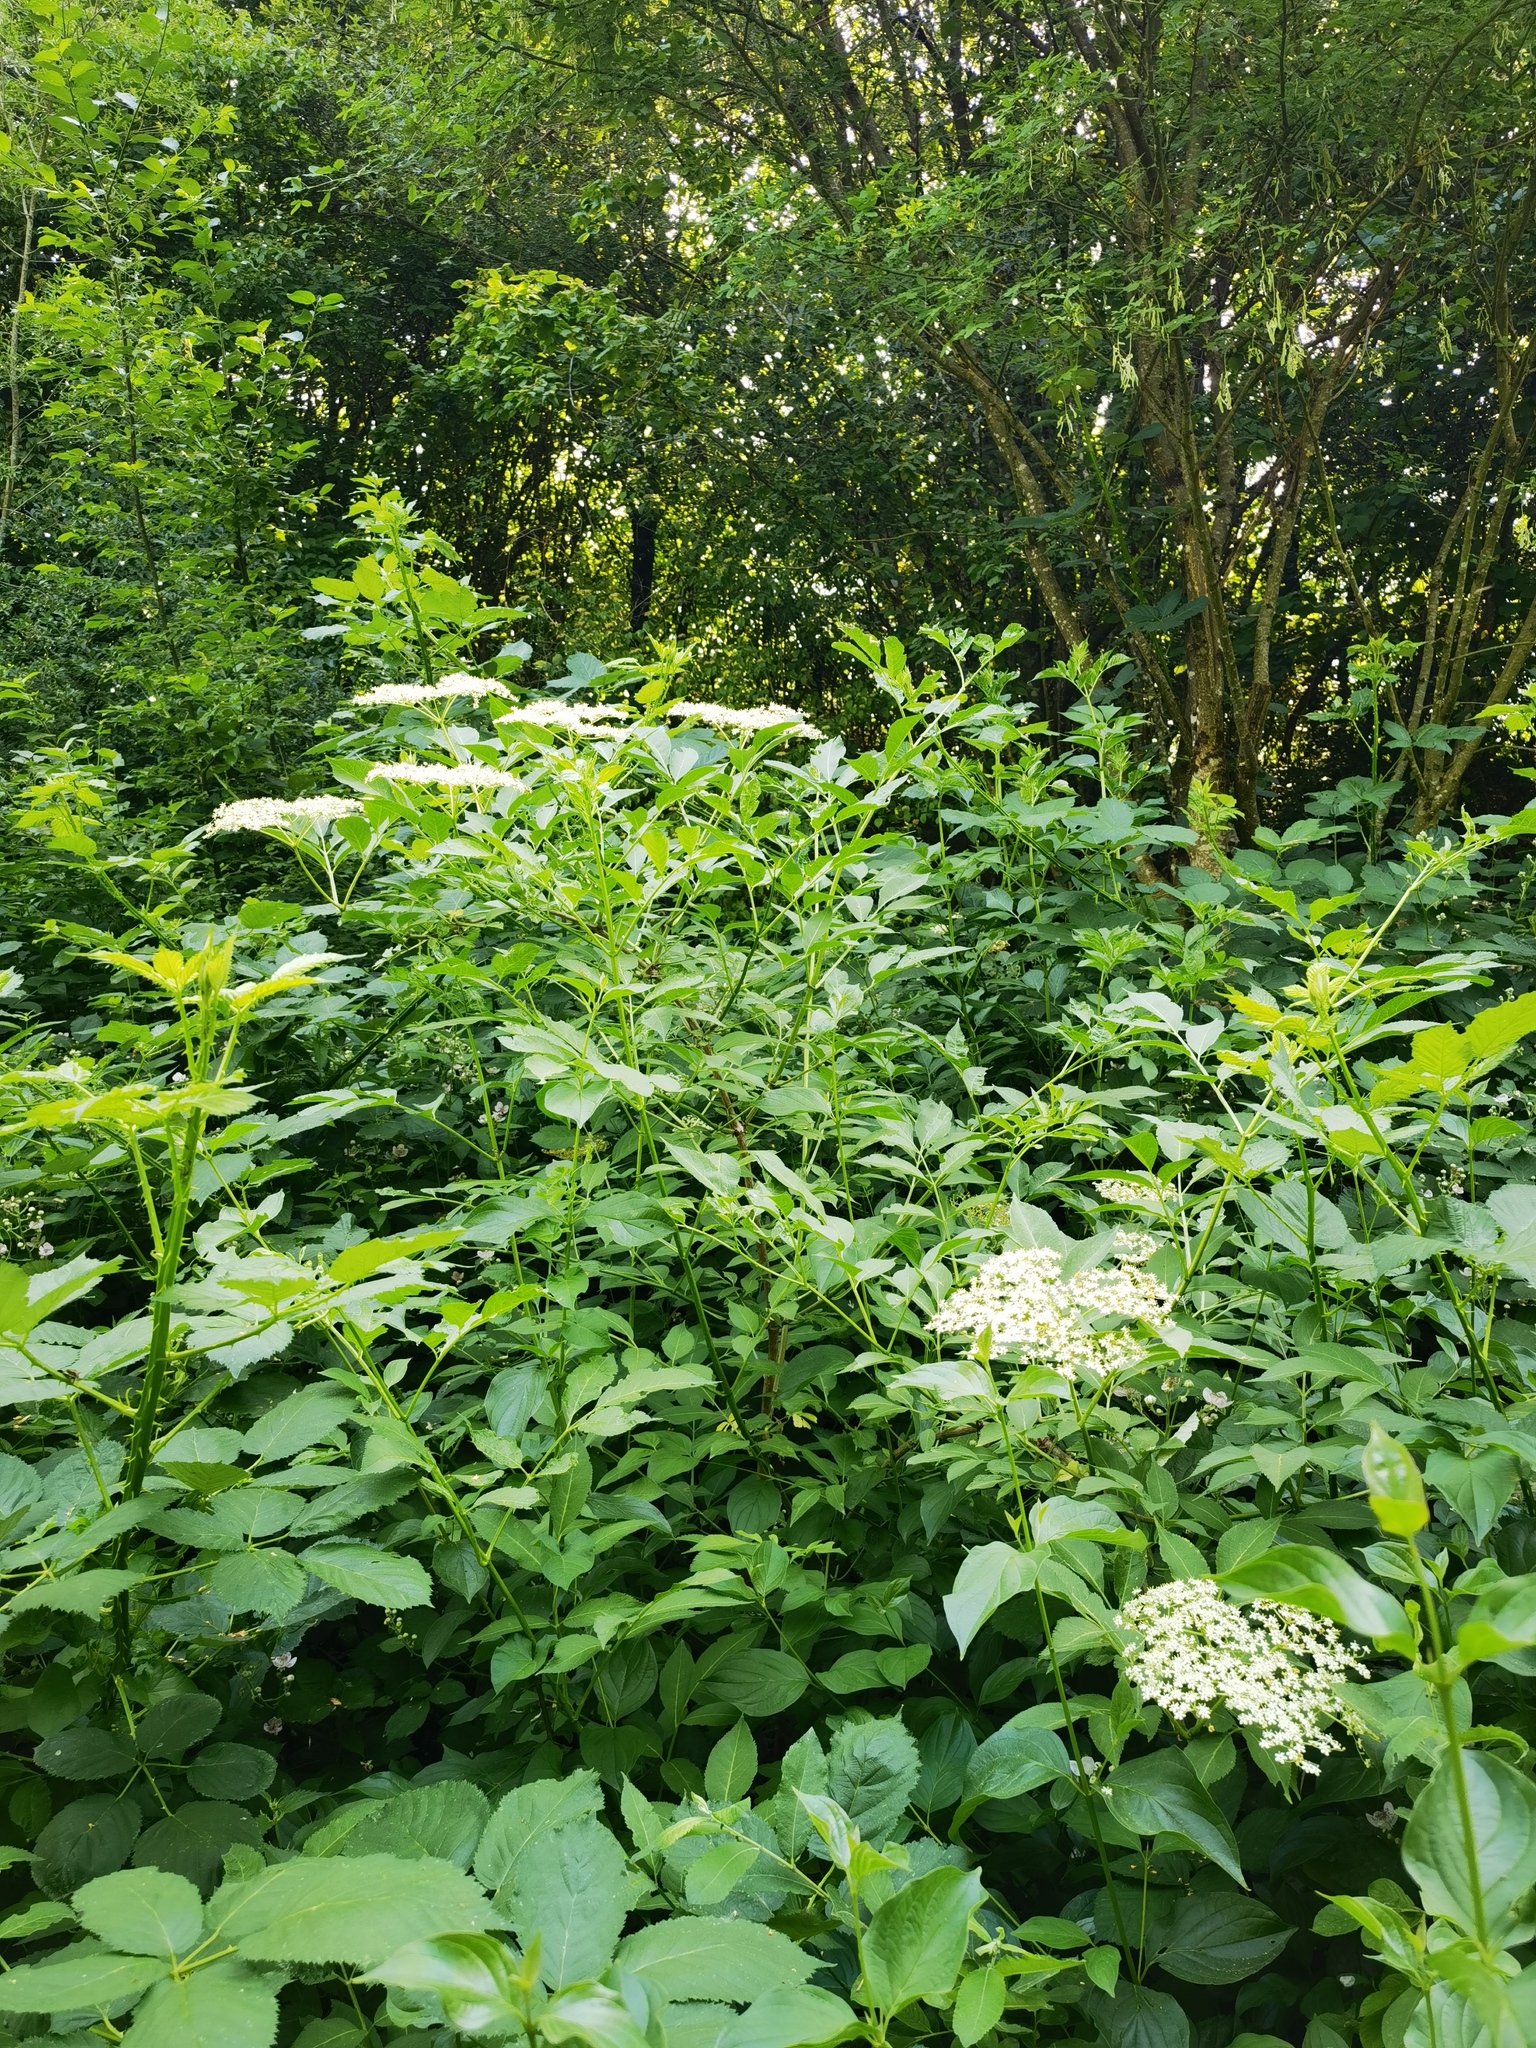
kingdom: Plantae
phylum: Tracheophyta
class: Magnoliopsida
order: Dipsacales
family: Viburnaceae
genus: Sambucus
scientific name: Sambucus nigra
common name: Elder
